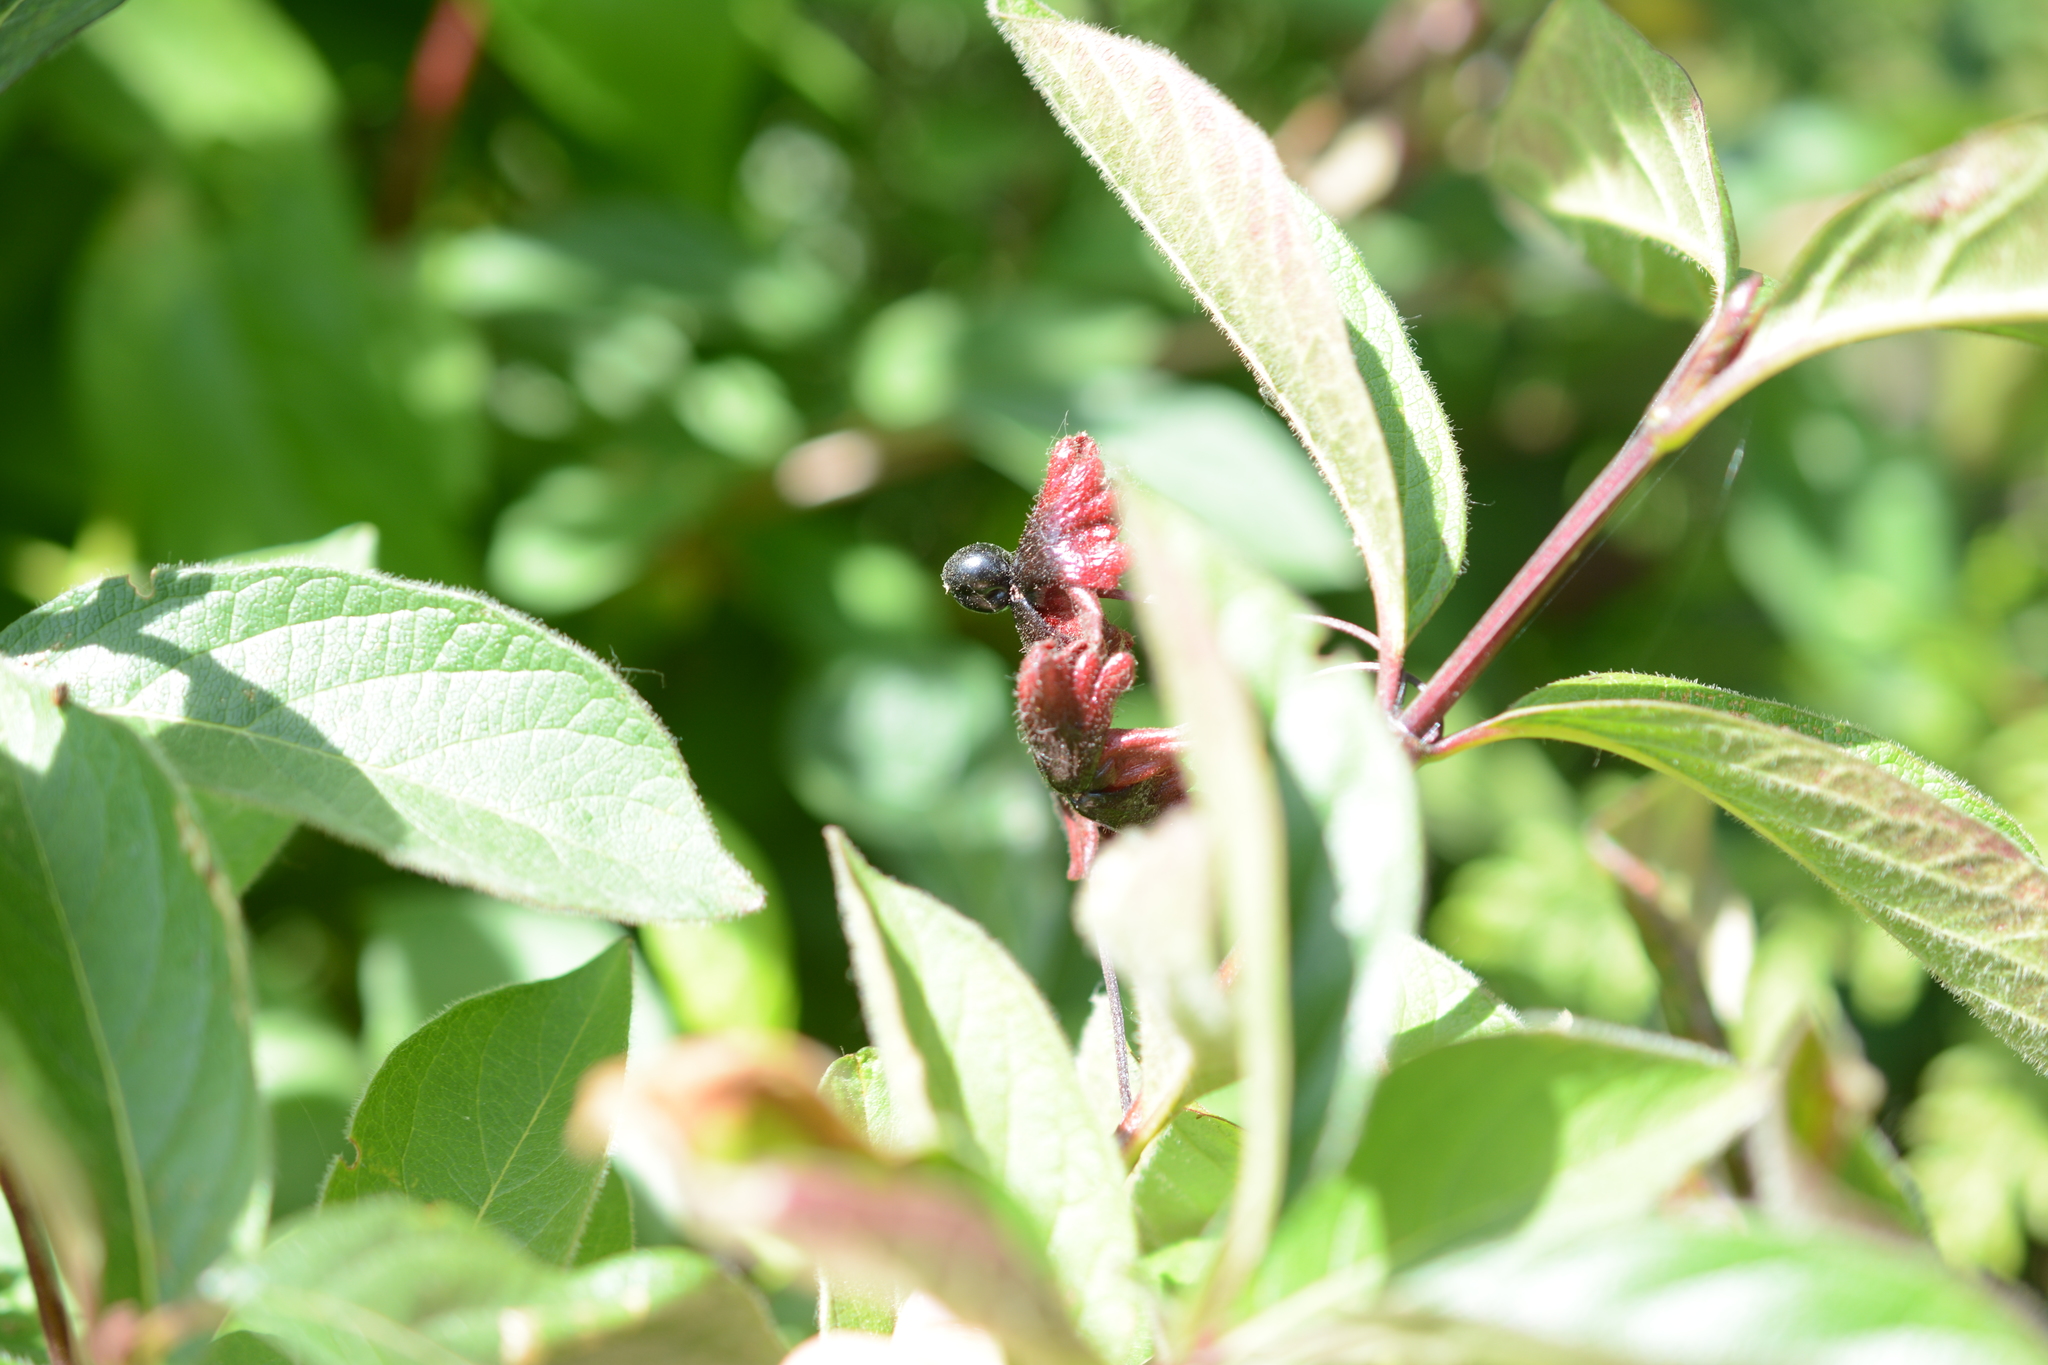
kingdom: Plantae
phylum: Tracheophyta
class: Magnoliopsida
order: Dipsacales
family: Caprifoliaceae
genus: Lonicera
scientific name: Lonicera involucrata
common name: Californian honeysuckle
